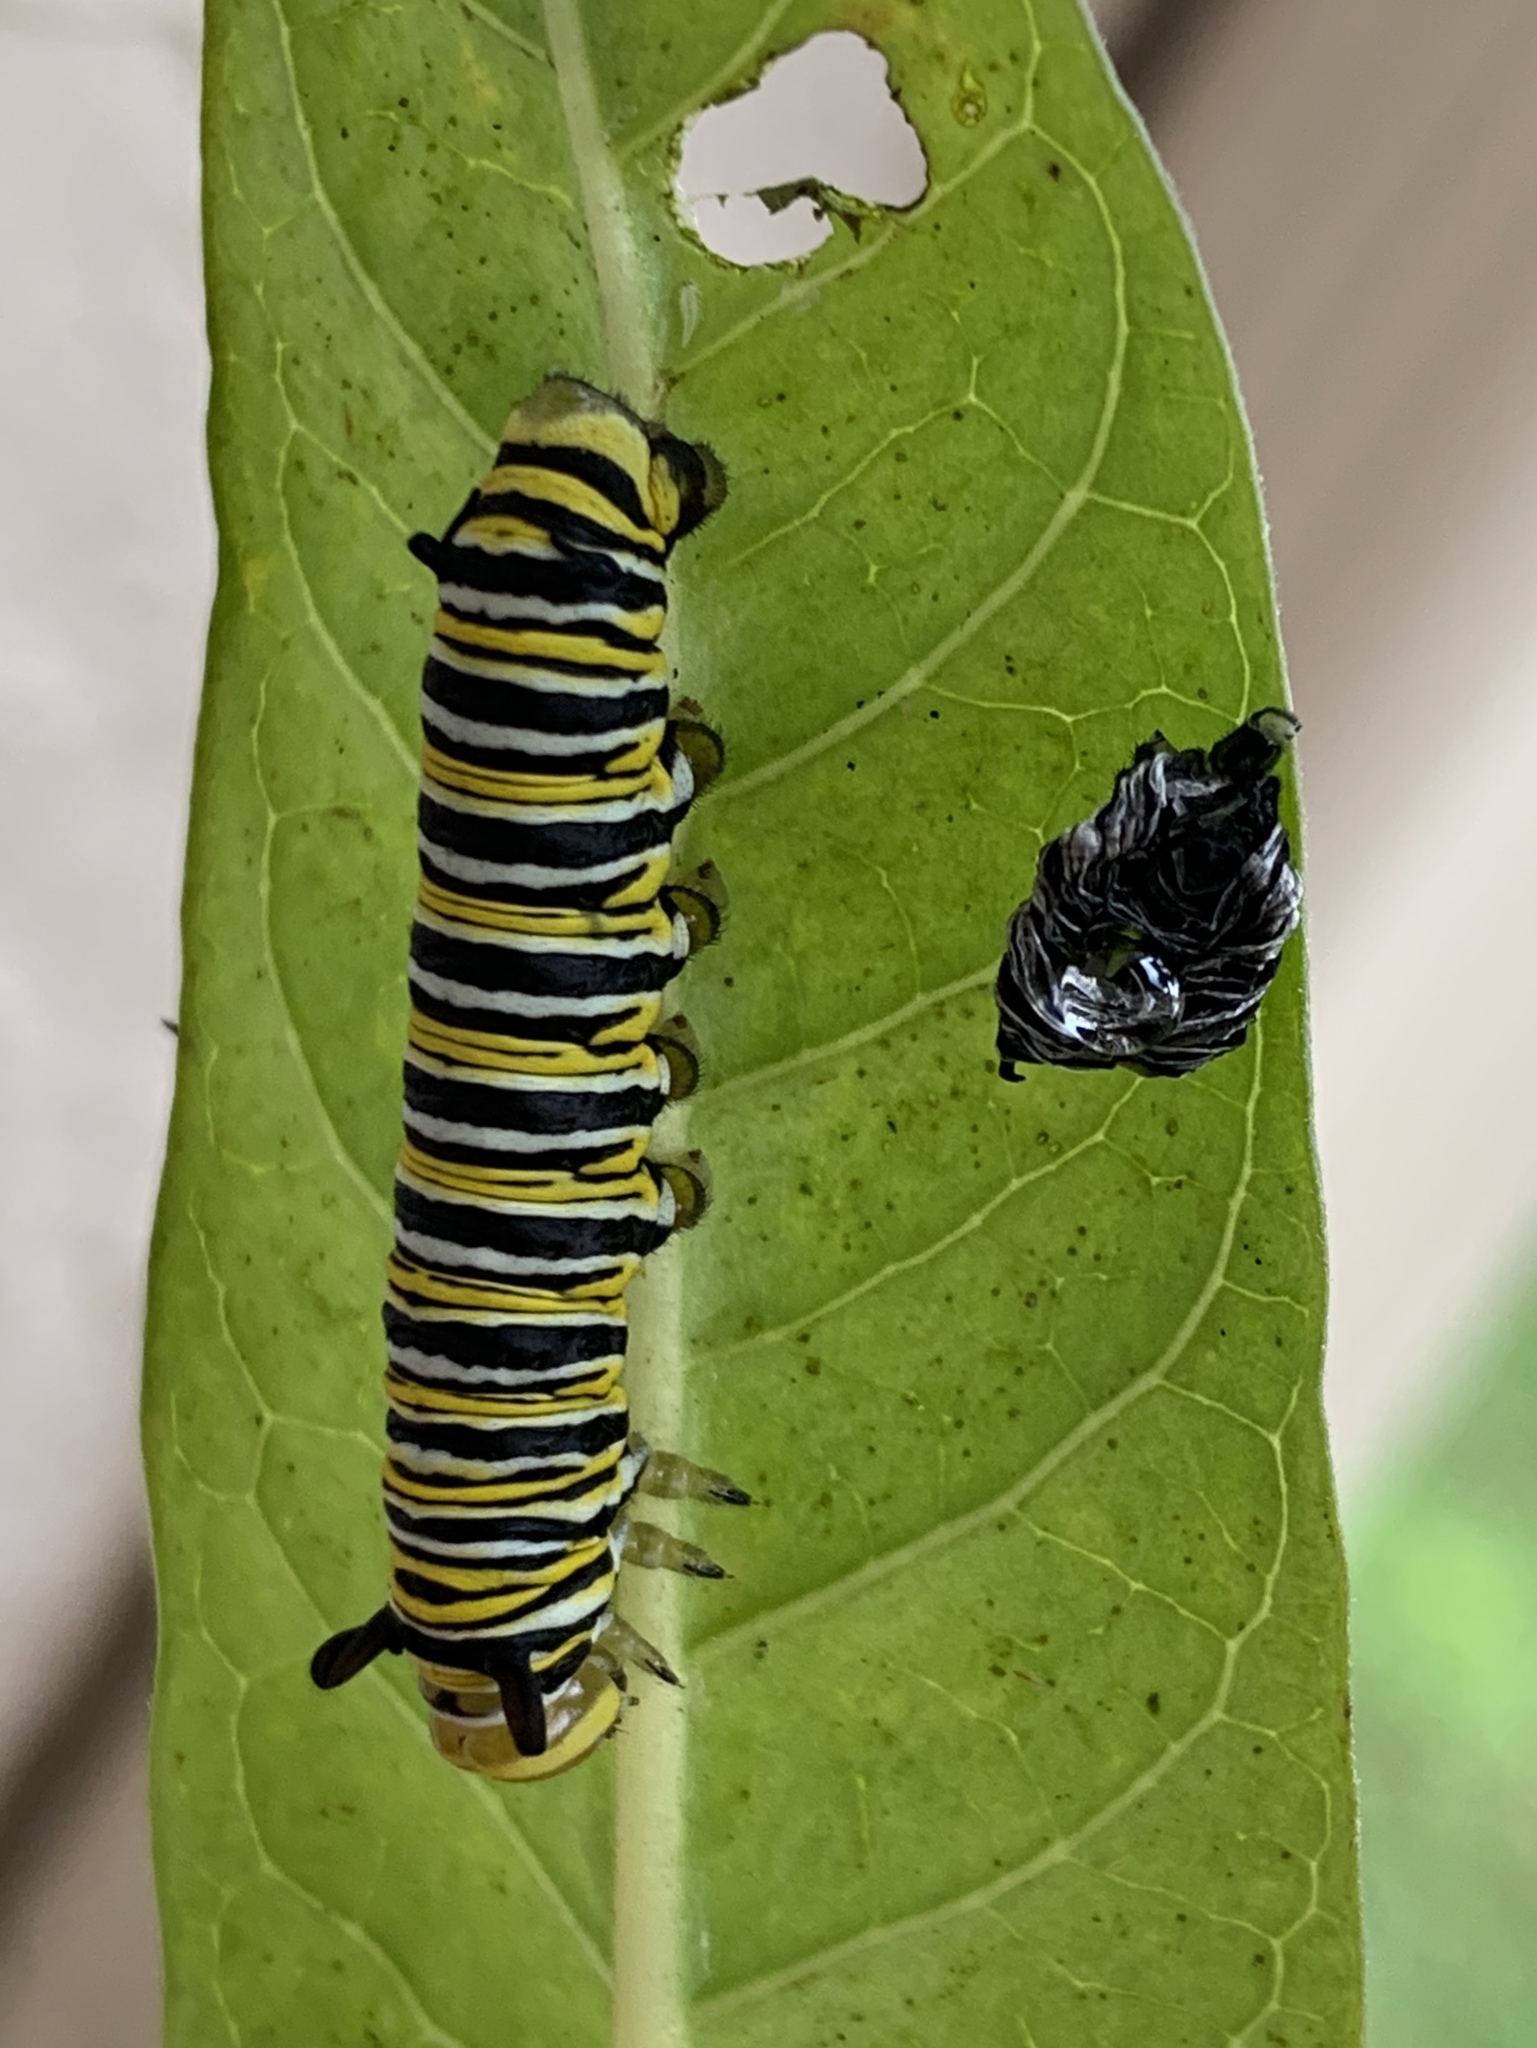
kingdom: Animalia
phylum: Arthropoda
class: Insecta
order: Lepidoptera
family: Nymphalidae
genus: Danaus
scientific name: Danaus plexippus
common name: Monarch
